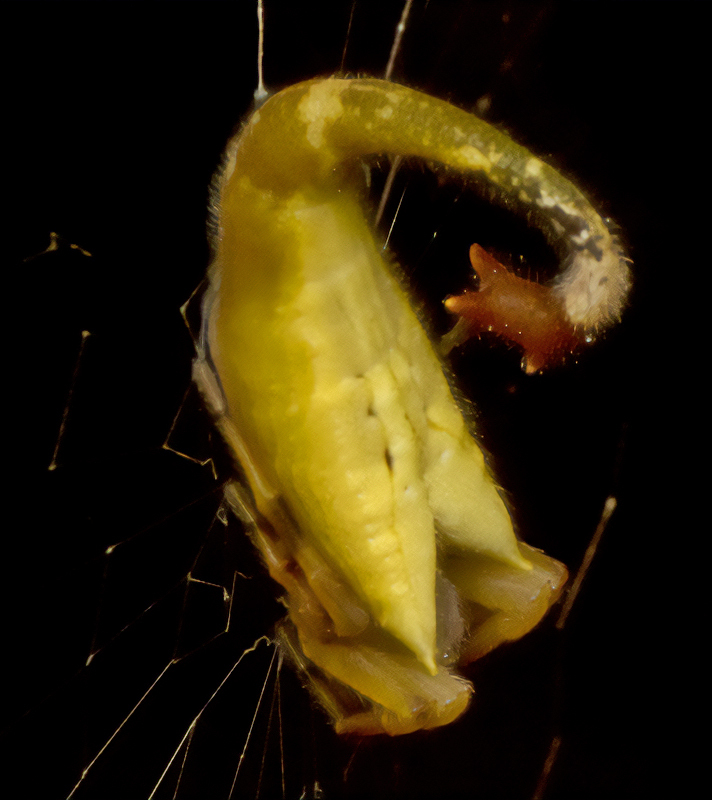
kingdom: Animalia
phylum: Arthropoda
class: Arachnida
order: Araneae
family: Araneidae
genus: Arachnura
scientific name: Arachnura higginsi
